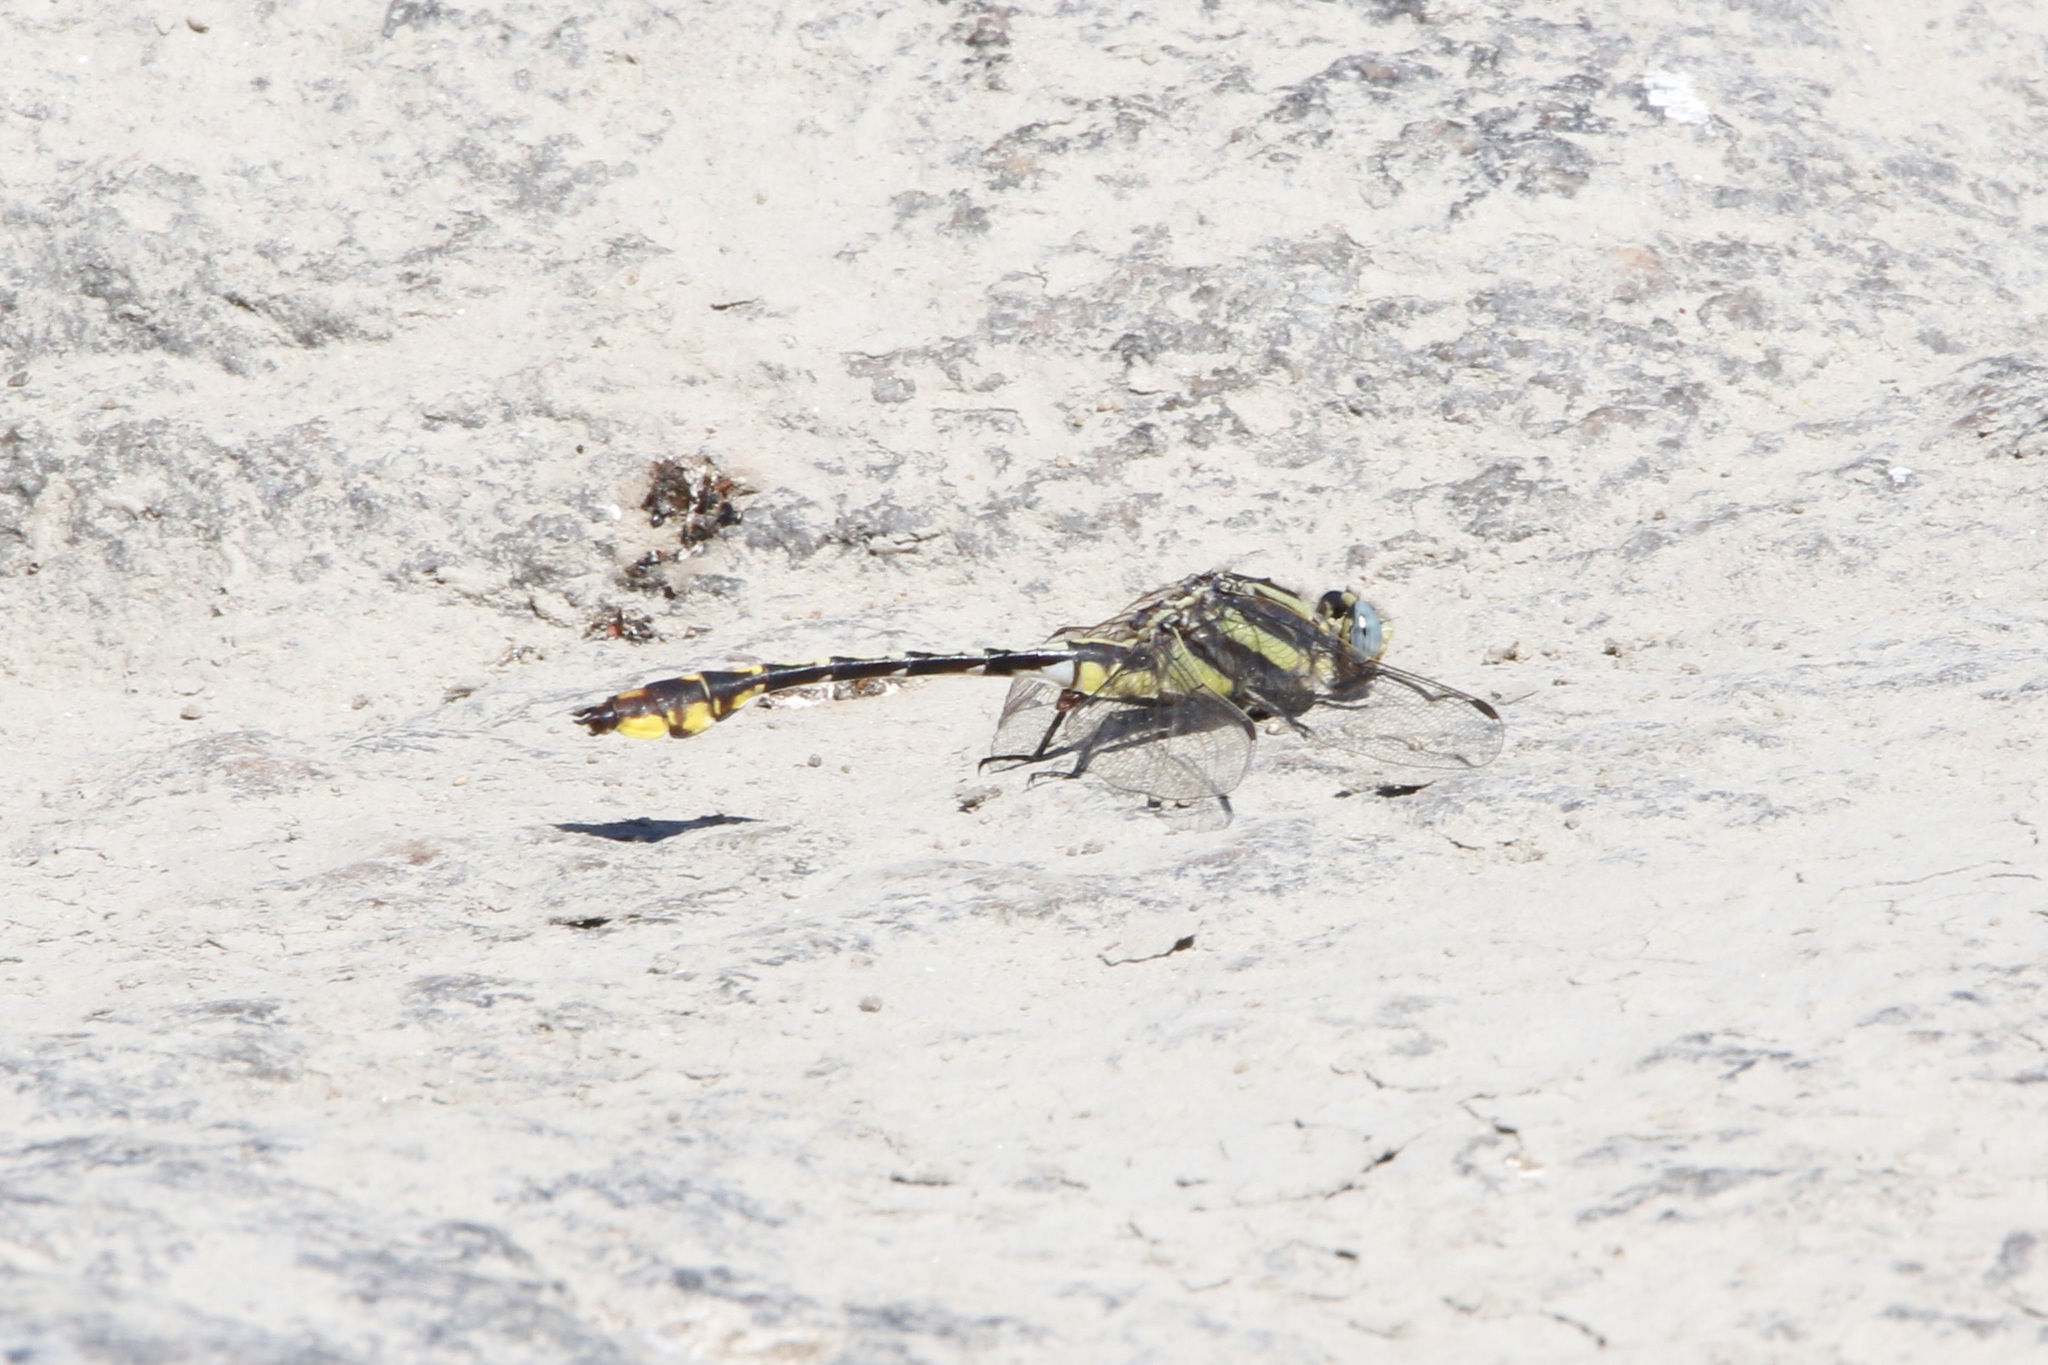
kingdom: Animalia
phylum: Arthropoda
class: Insecta
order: Odonata
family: Gomphidae
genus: Gomphurus
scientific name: Gomphurus externus
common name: Plains clubtail
